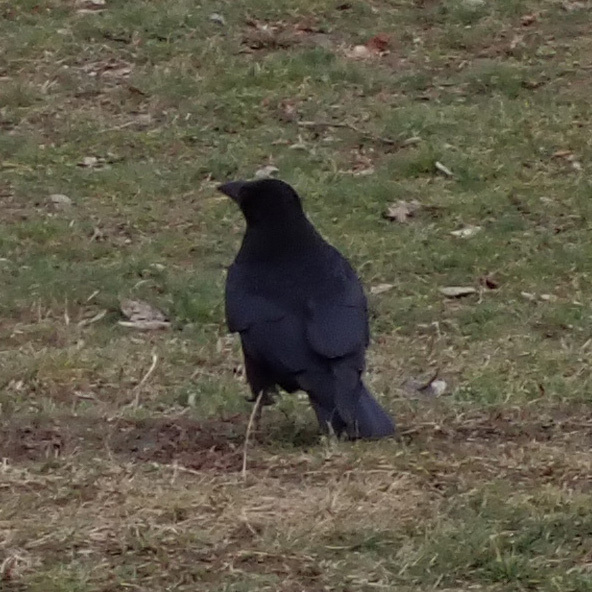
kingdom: Animalia
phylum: Chordata
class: Aves
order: Passeriformes
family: Corvidae
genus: Corvus
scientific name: Corvus corone
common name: Carrion crow
